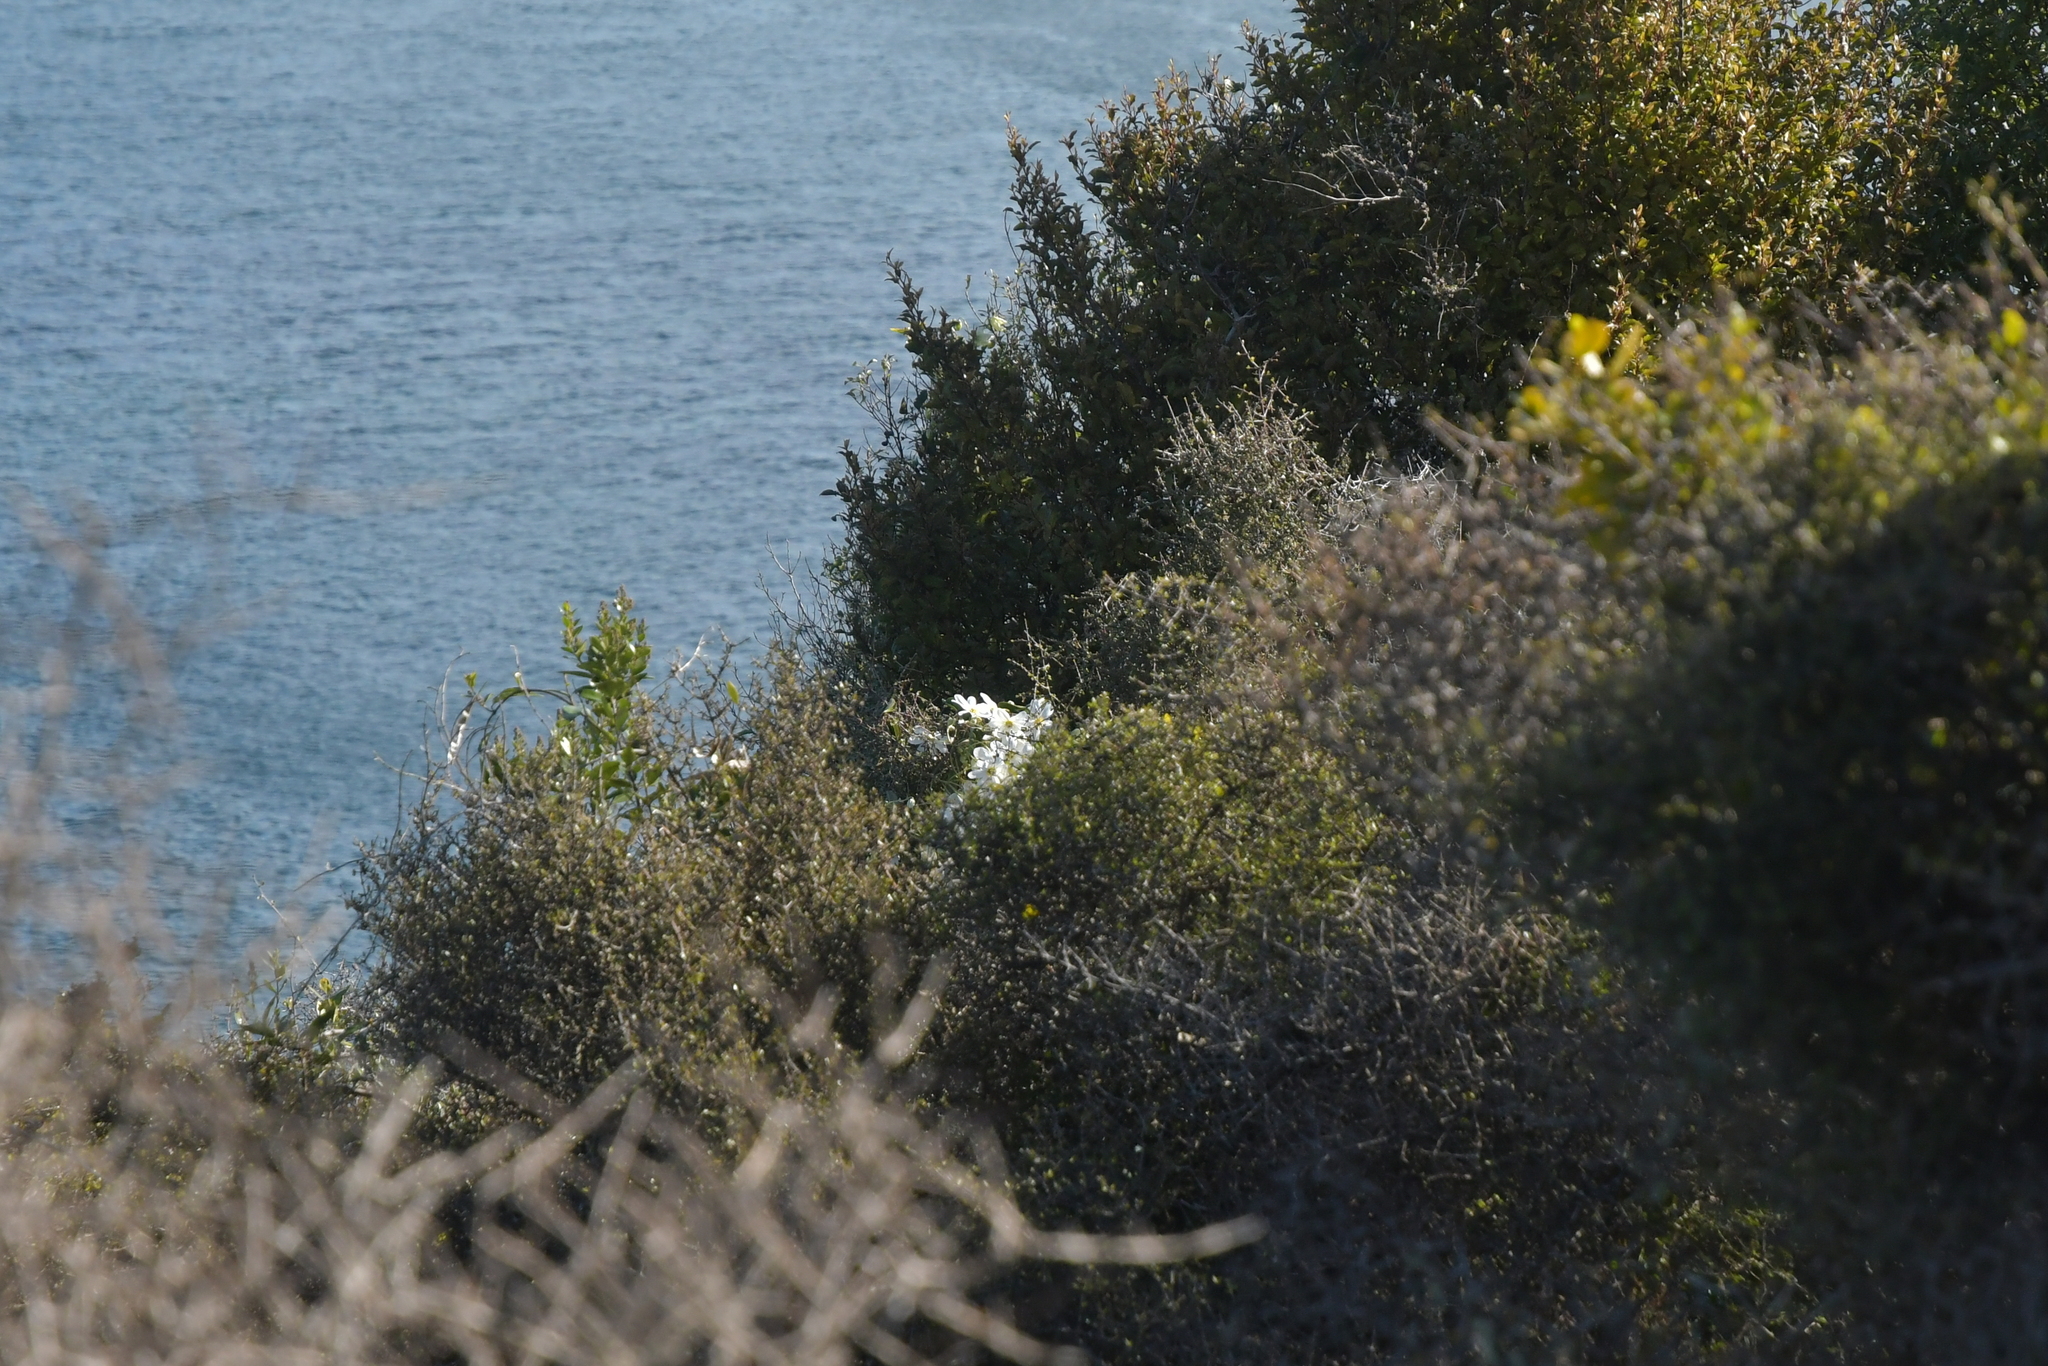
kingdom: Plantae
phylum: Tracheophyta
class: Magnoliopsida
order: Ranunculales
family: Ranunculaceae
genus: Clematis
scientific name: Clematis paniculata
